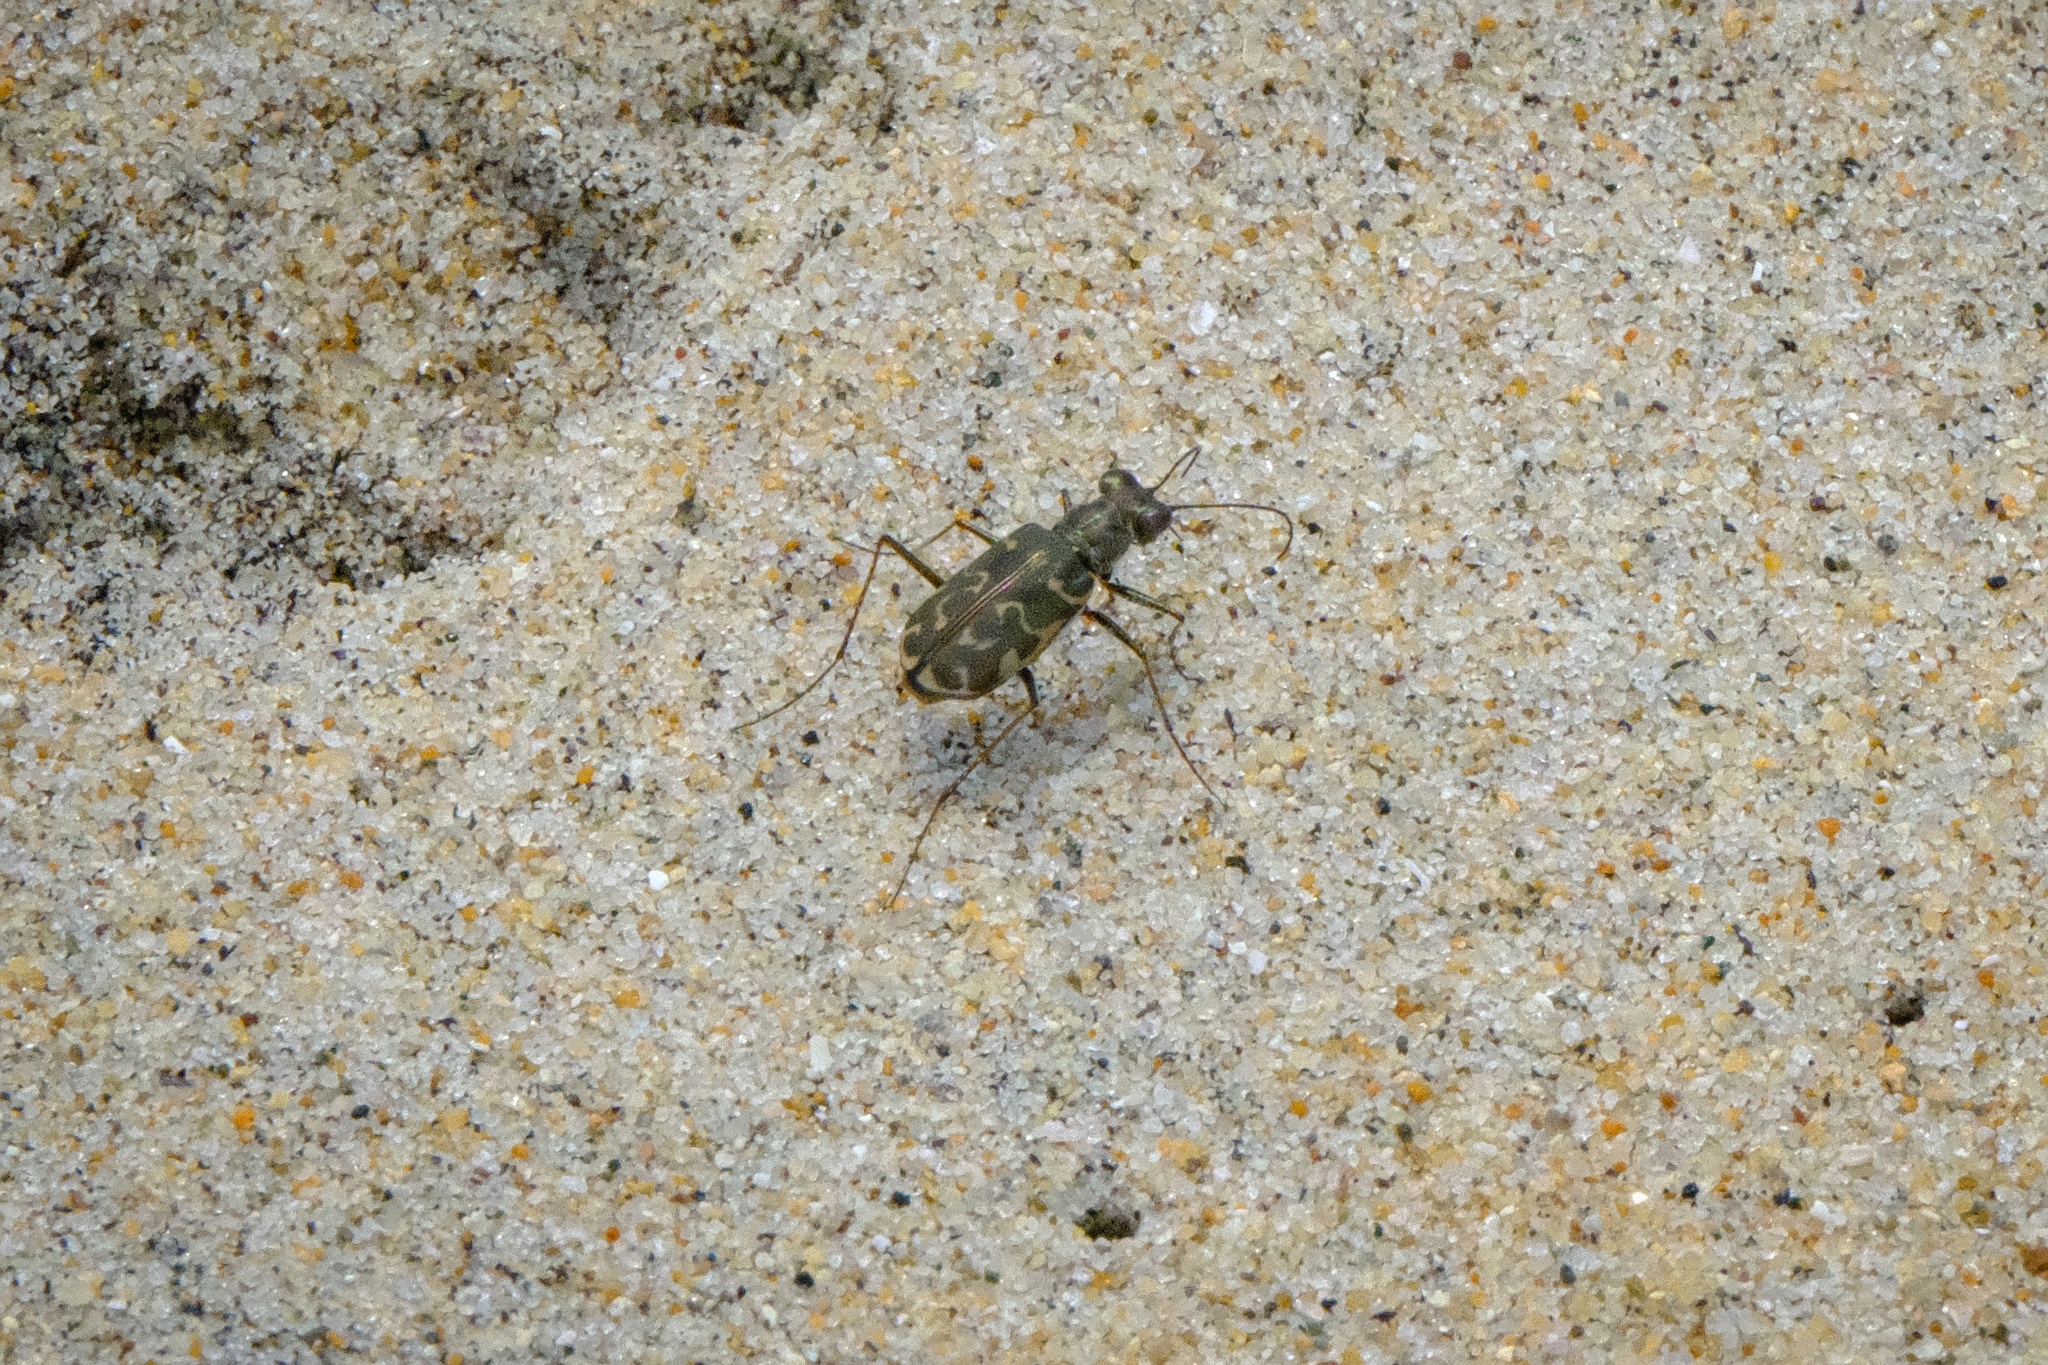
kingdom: Animalia
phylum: Arthropoda
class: Insecta
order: Coleoptera
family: Carabidae
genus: Cicindela
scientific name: Cicindela trifasciata
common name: Mudflat tiger beetle
